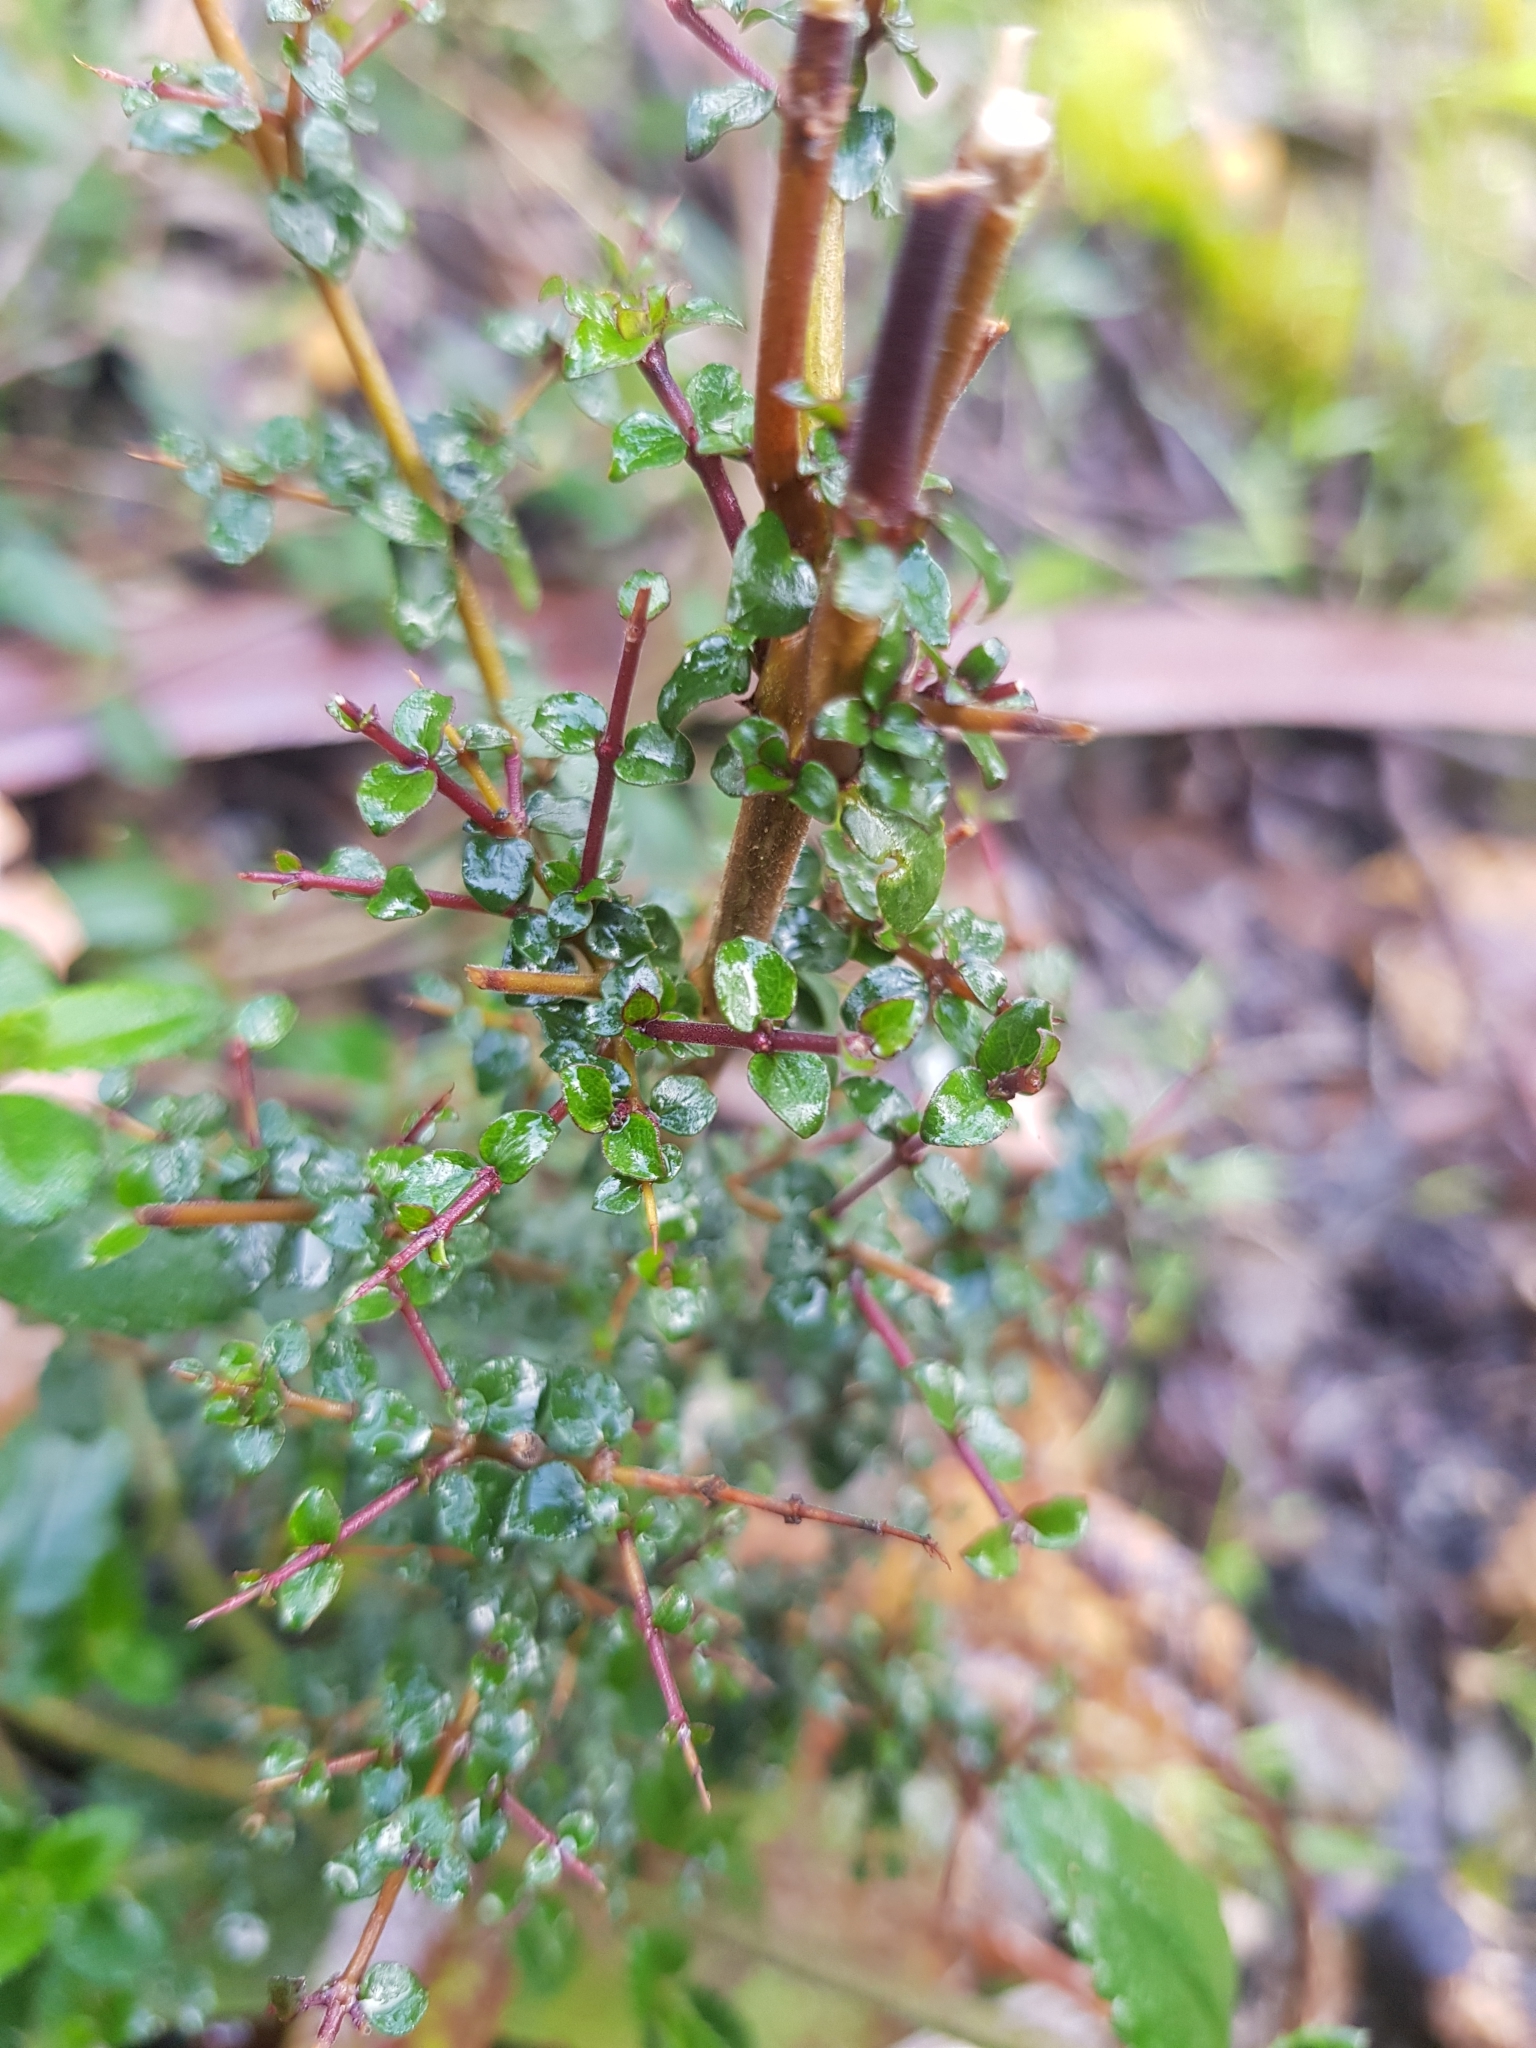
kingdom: Plantae
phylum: Tracheophyta
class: Magnoliopsida
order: Gentianales
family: Rubiaceae
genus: Coprosma
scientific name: Coprosma quadrifida
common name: Prickly currantbush
